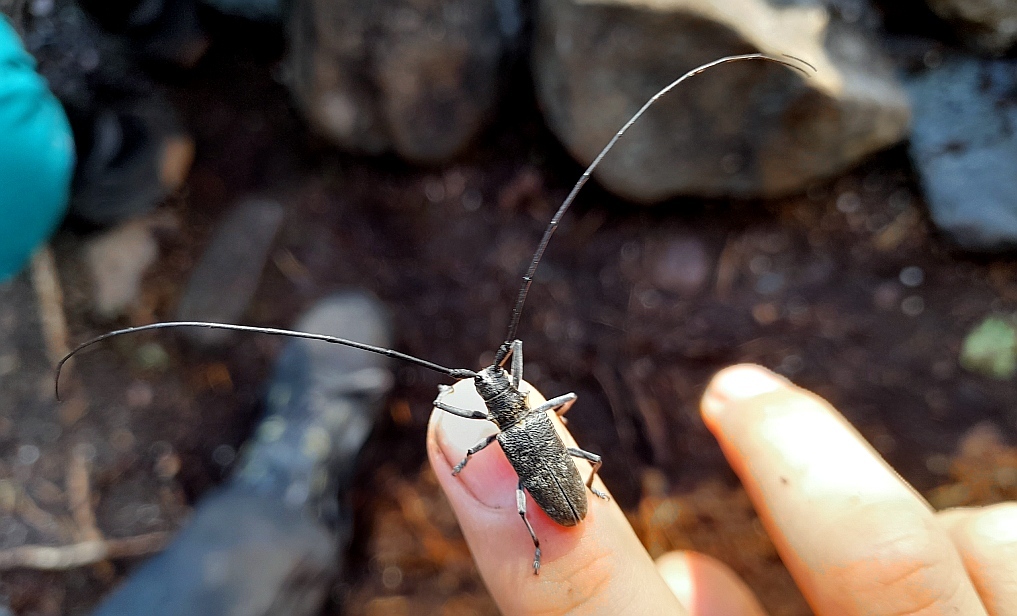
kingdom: Animalia
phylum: Arthropoda
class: Insecta
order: Coleoptera
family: Cerambycidae
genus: Monochamus
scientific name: Monochamus galloprovincialis
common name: Pine sawyer
